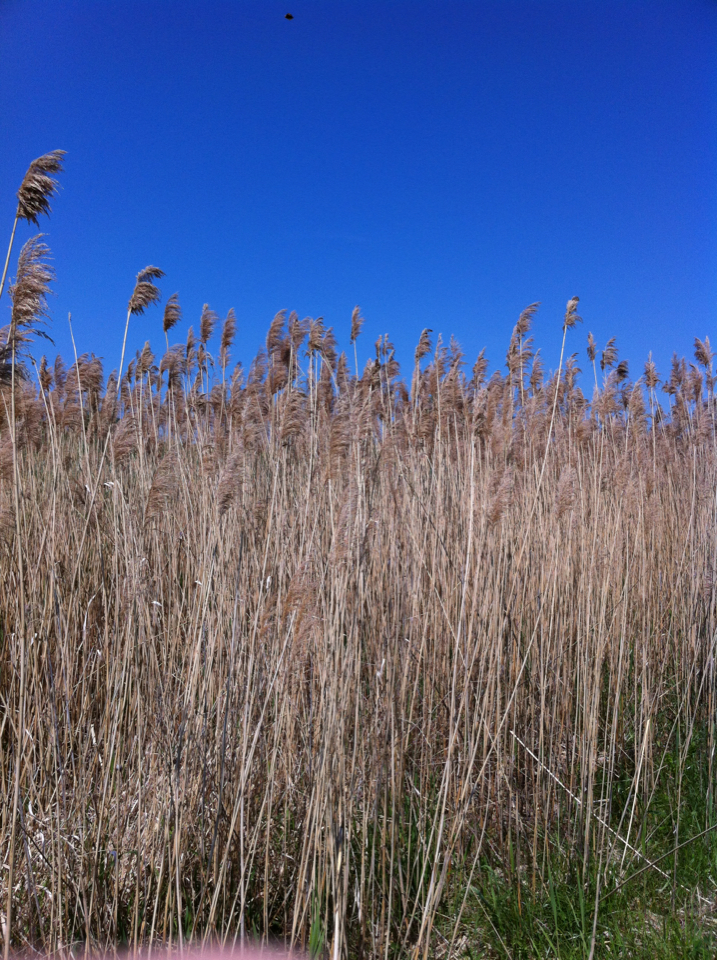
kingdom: Plantae
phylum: Tracheophyta
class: Liliopsida
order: Poales
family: Poaceae
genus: Phragmites
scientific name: Phragmites australis
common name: Common reed
